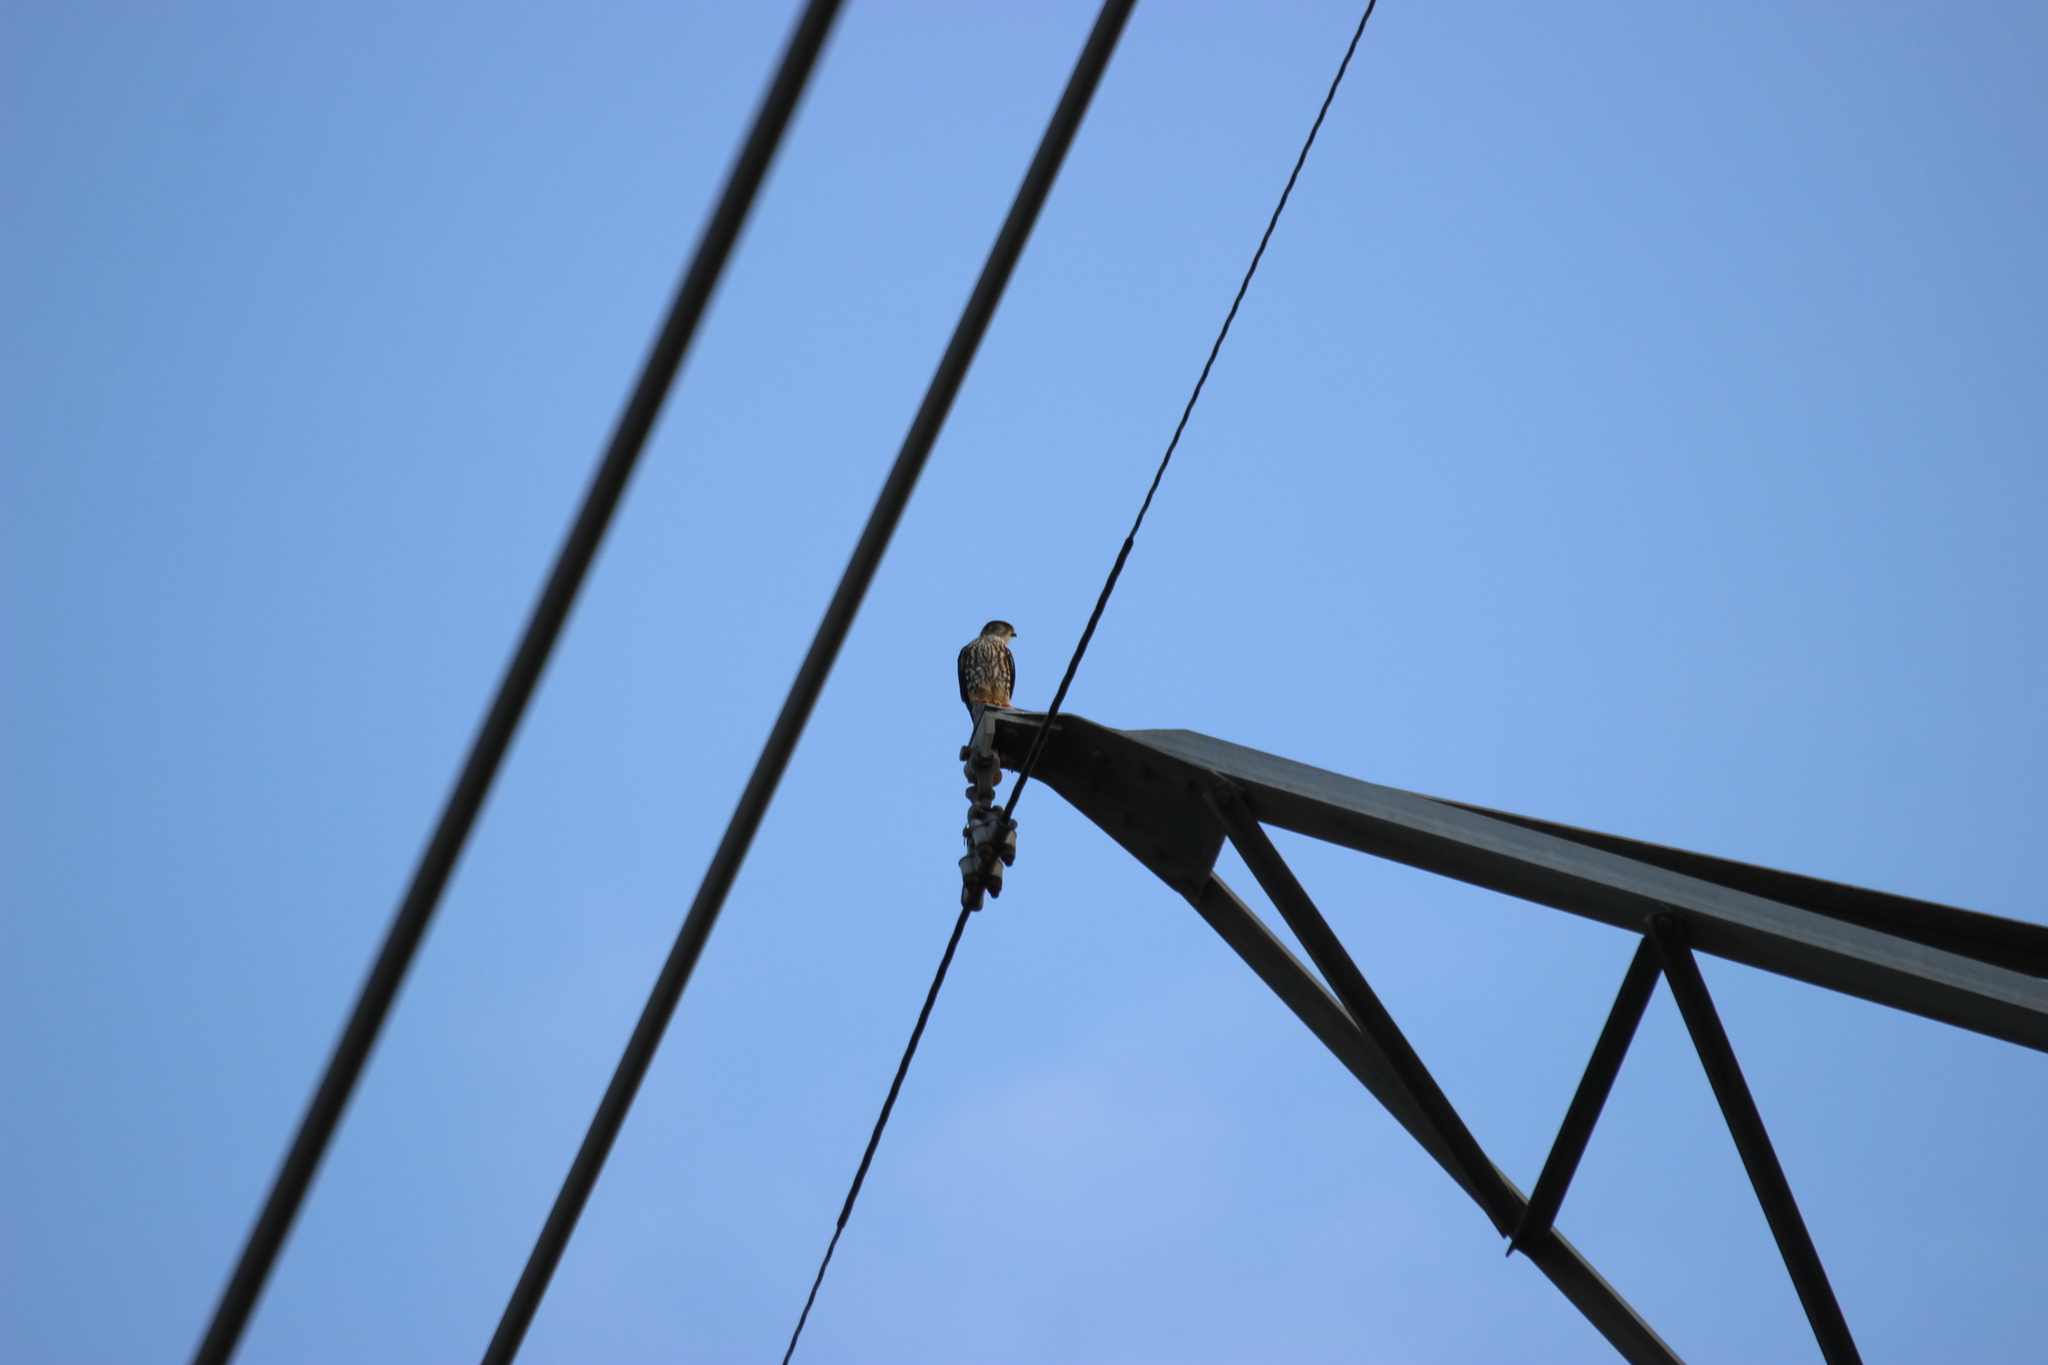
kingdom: Animalia
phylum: Chordata
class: Aves
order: Falconiformes
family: Falconidae
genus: Falco
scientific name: Falco columbarius
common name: Merlin
